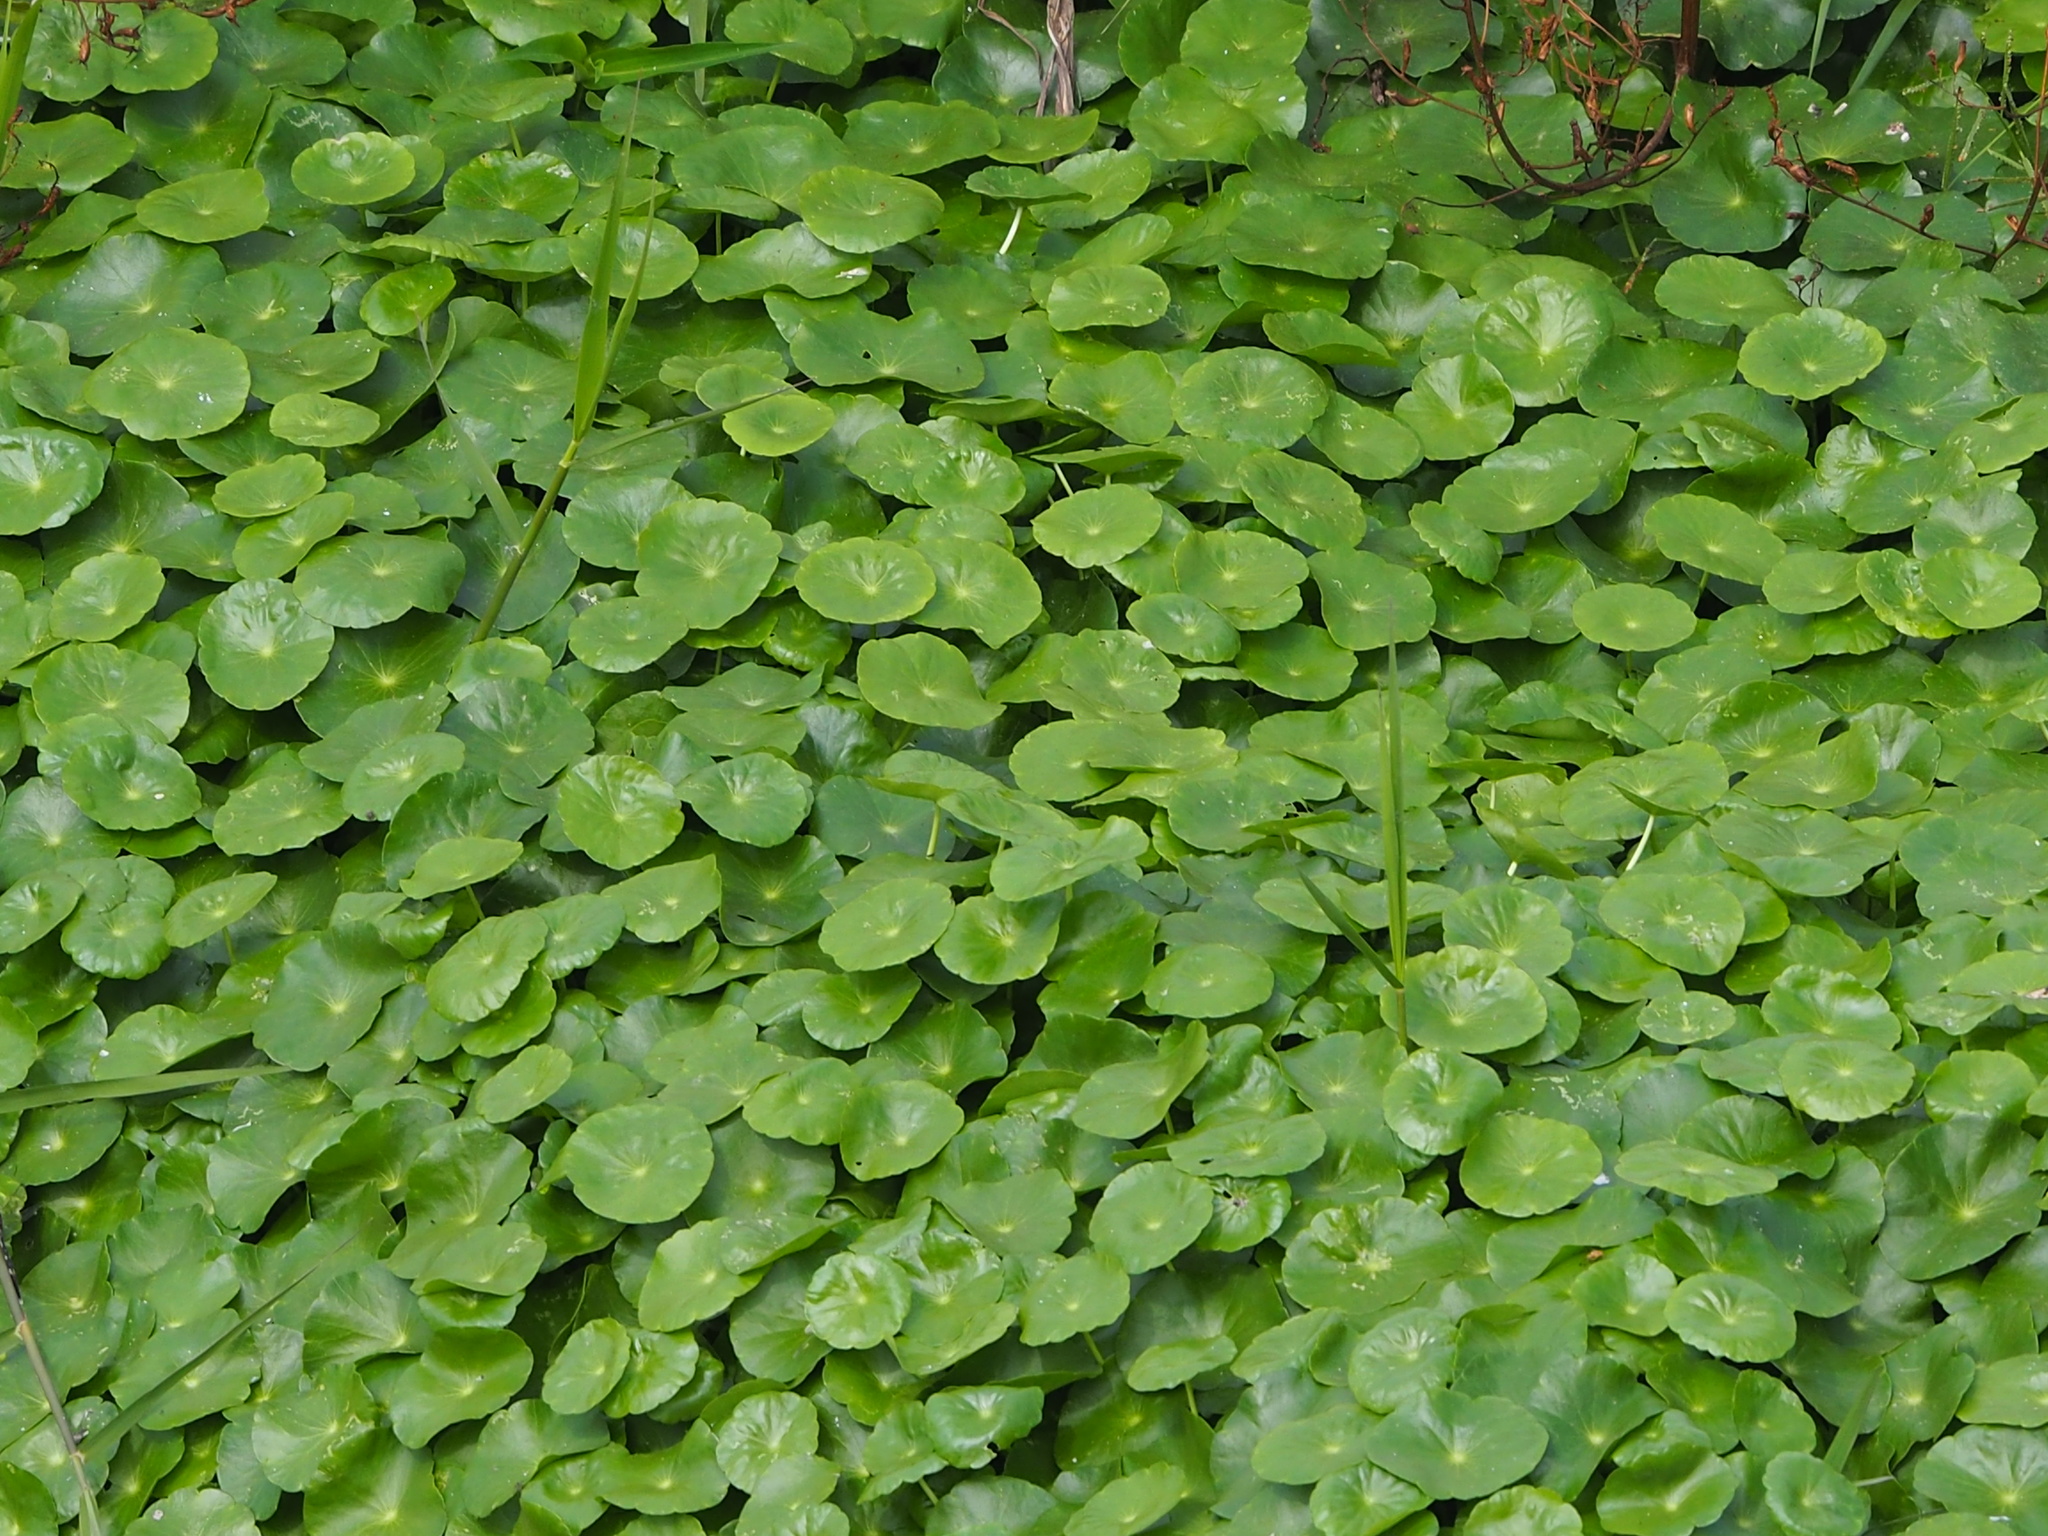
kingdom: Plantae
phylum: Tracheophyta
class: Magnoliopsida
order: Apiales
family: Araliaceae
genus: Hydrocotyle
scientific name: Hydrocotyle verticillata
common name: Whorled marshpennywort
